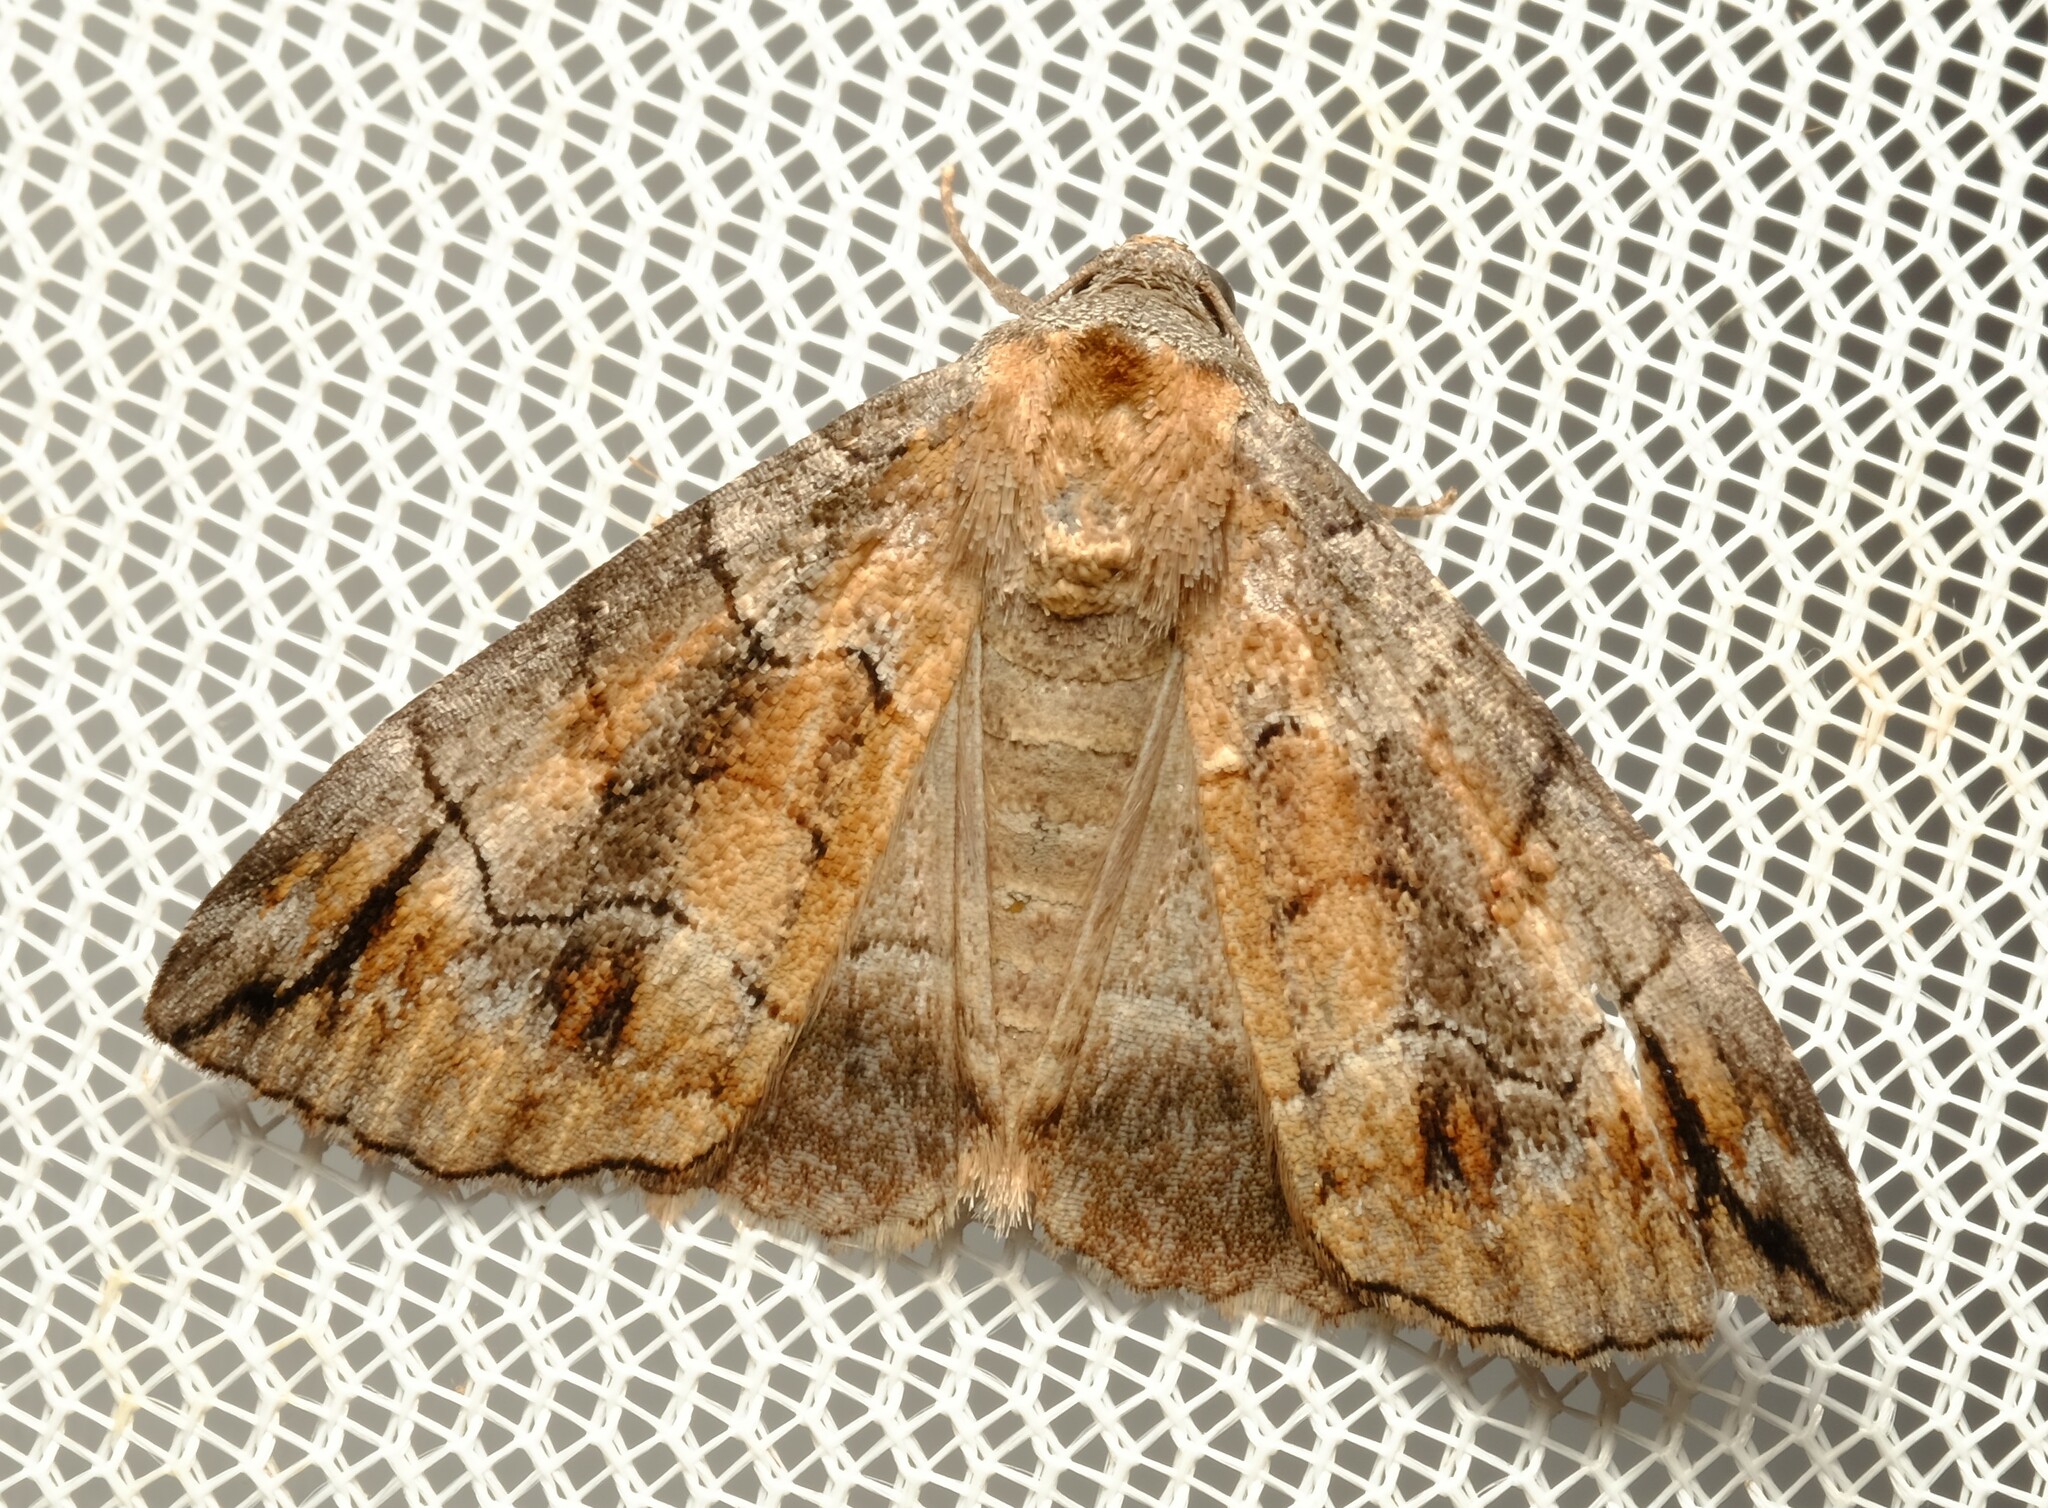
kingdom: Animalia
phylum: Arthropoda
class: Insecta
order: Lepidoptera
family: Geometridae
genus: Dysbatus
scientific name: Dysbatus stenodesma
